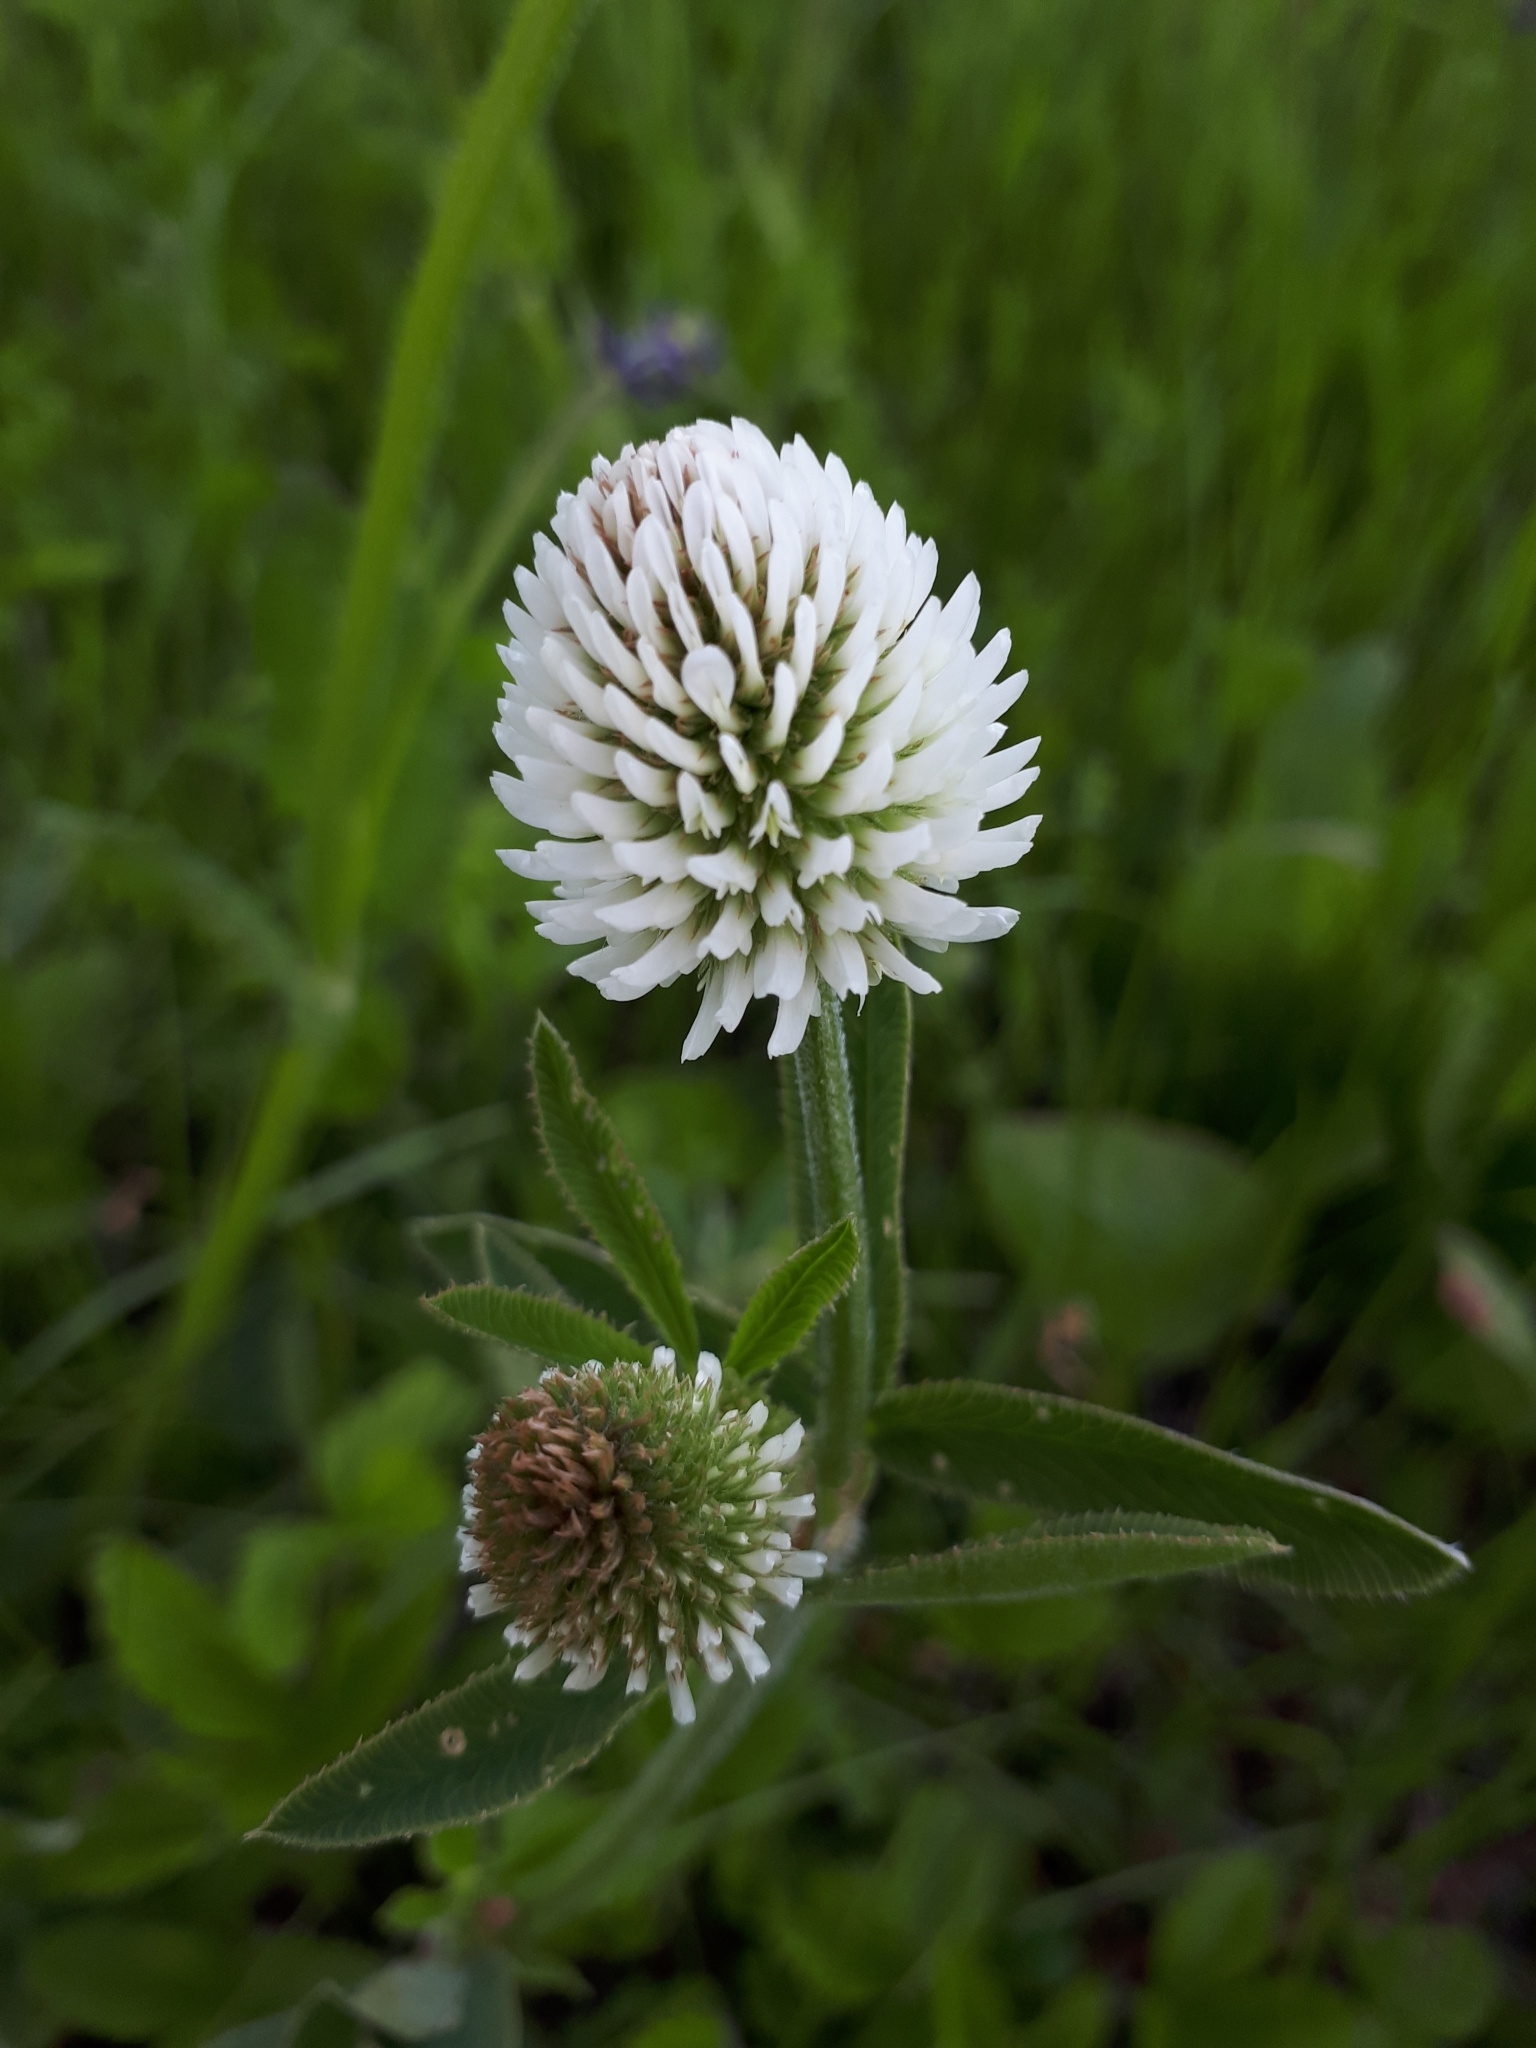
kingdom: Plantae
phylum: Tracheophyta
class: Magnoliopsida
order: Fabales
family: Fabaceae
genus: Trifolium
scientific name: Trifolium montanum
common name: Mountain clover
